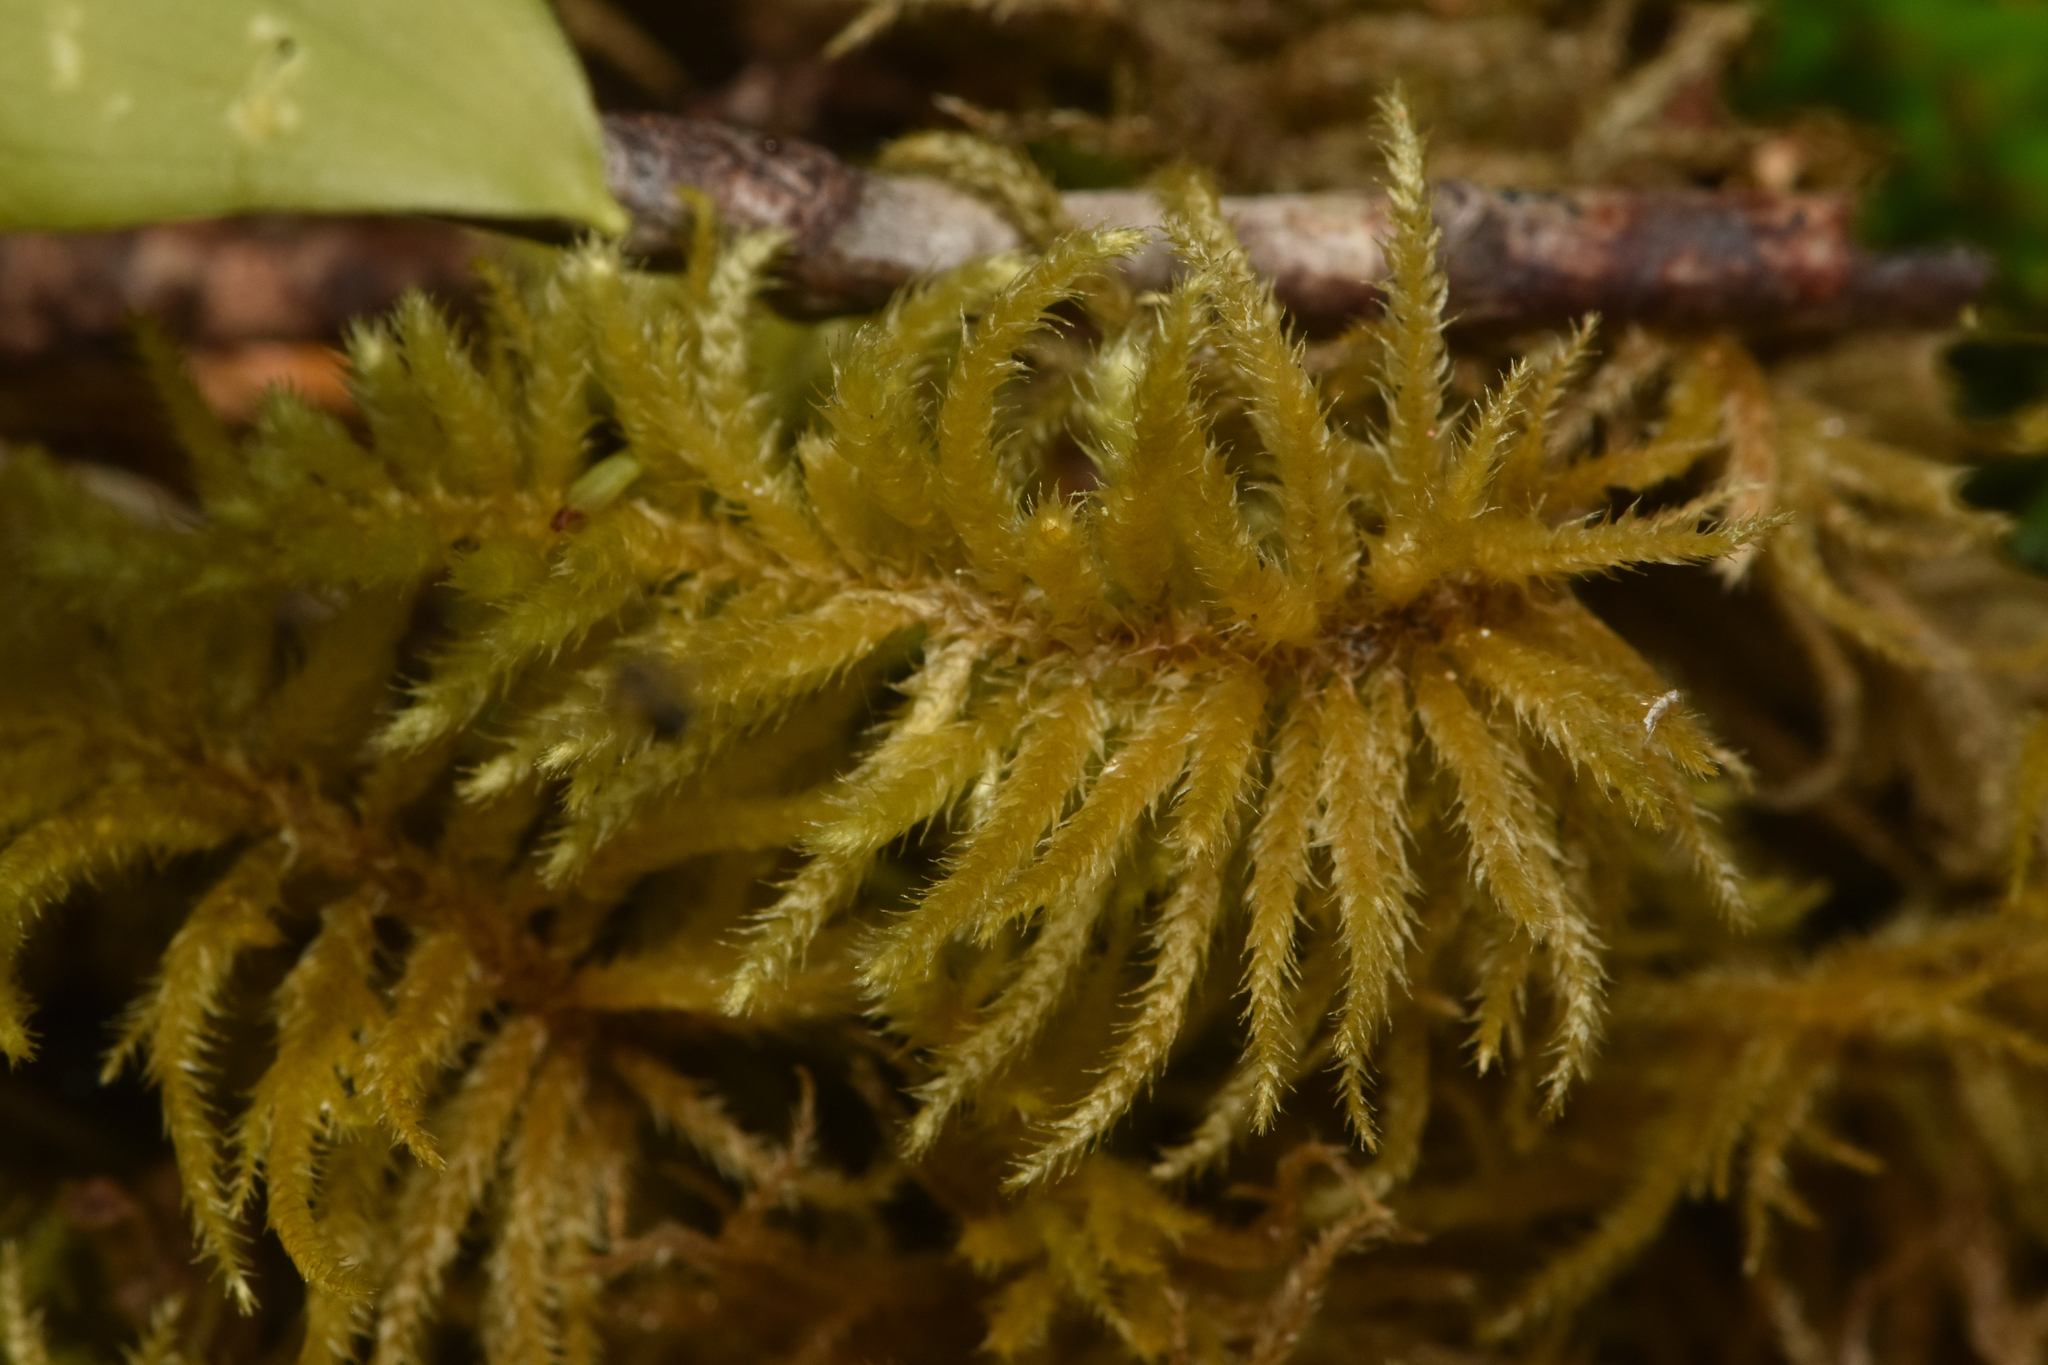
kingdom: Plantae
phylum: Bryophyta
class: Bryopsida
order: Hypnales
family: Brachytheciaceae
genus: Kindbergia
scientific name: Kindbergia oregana
